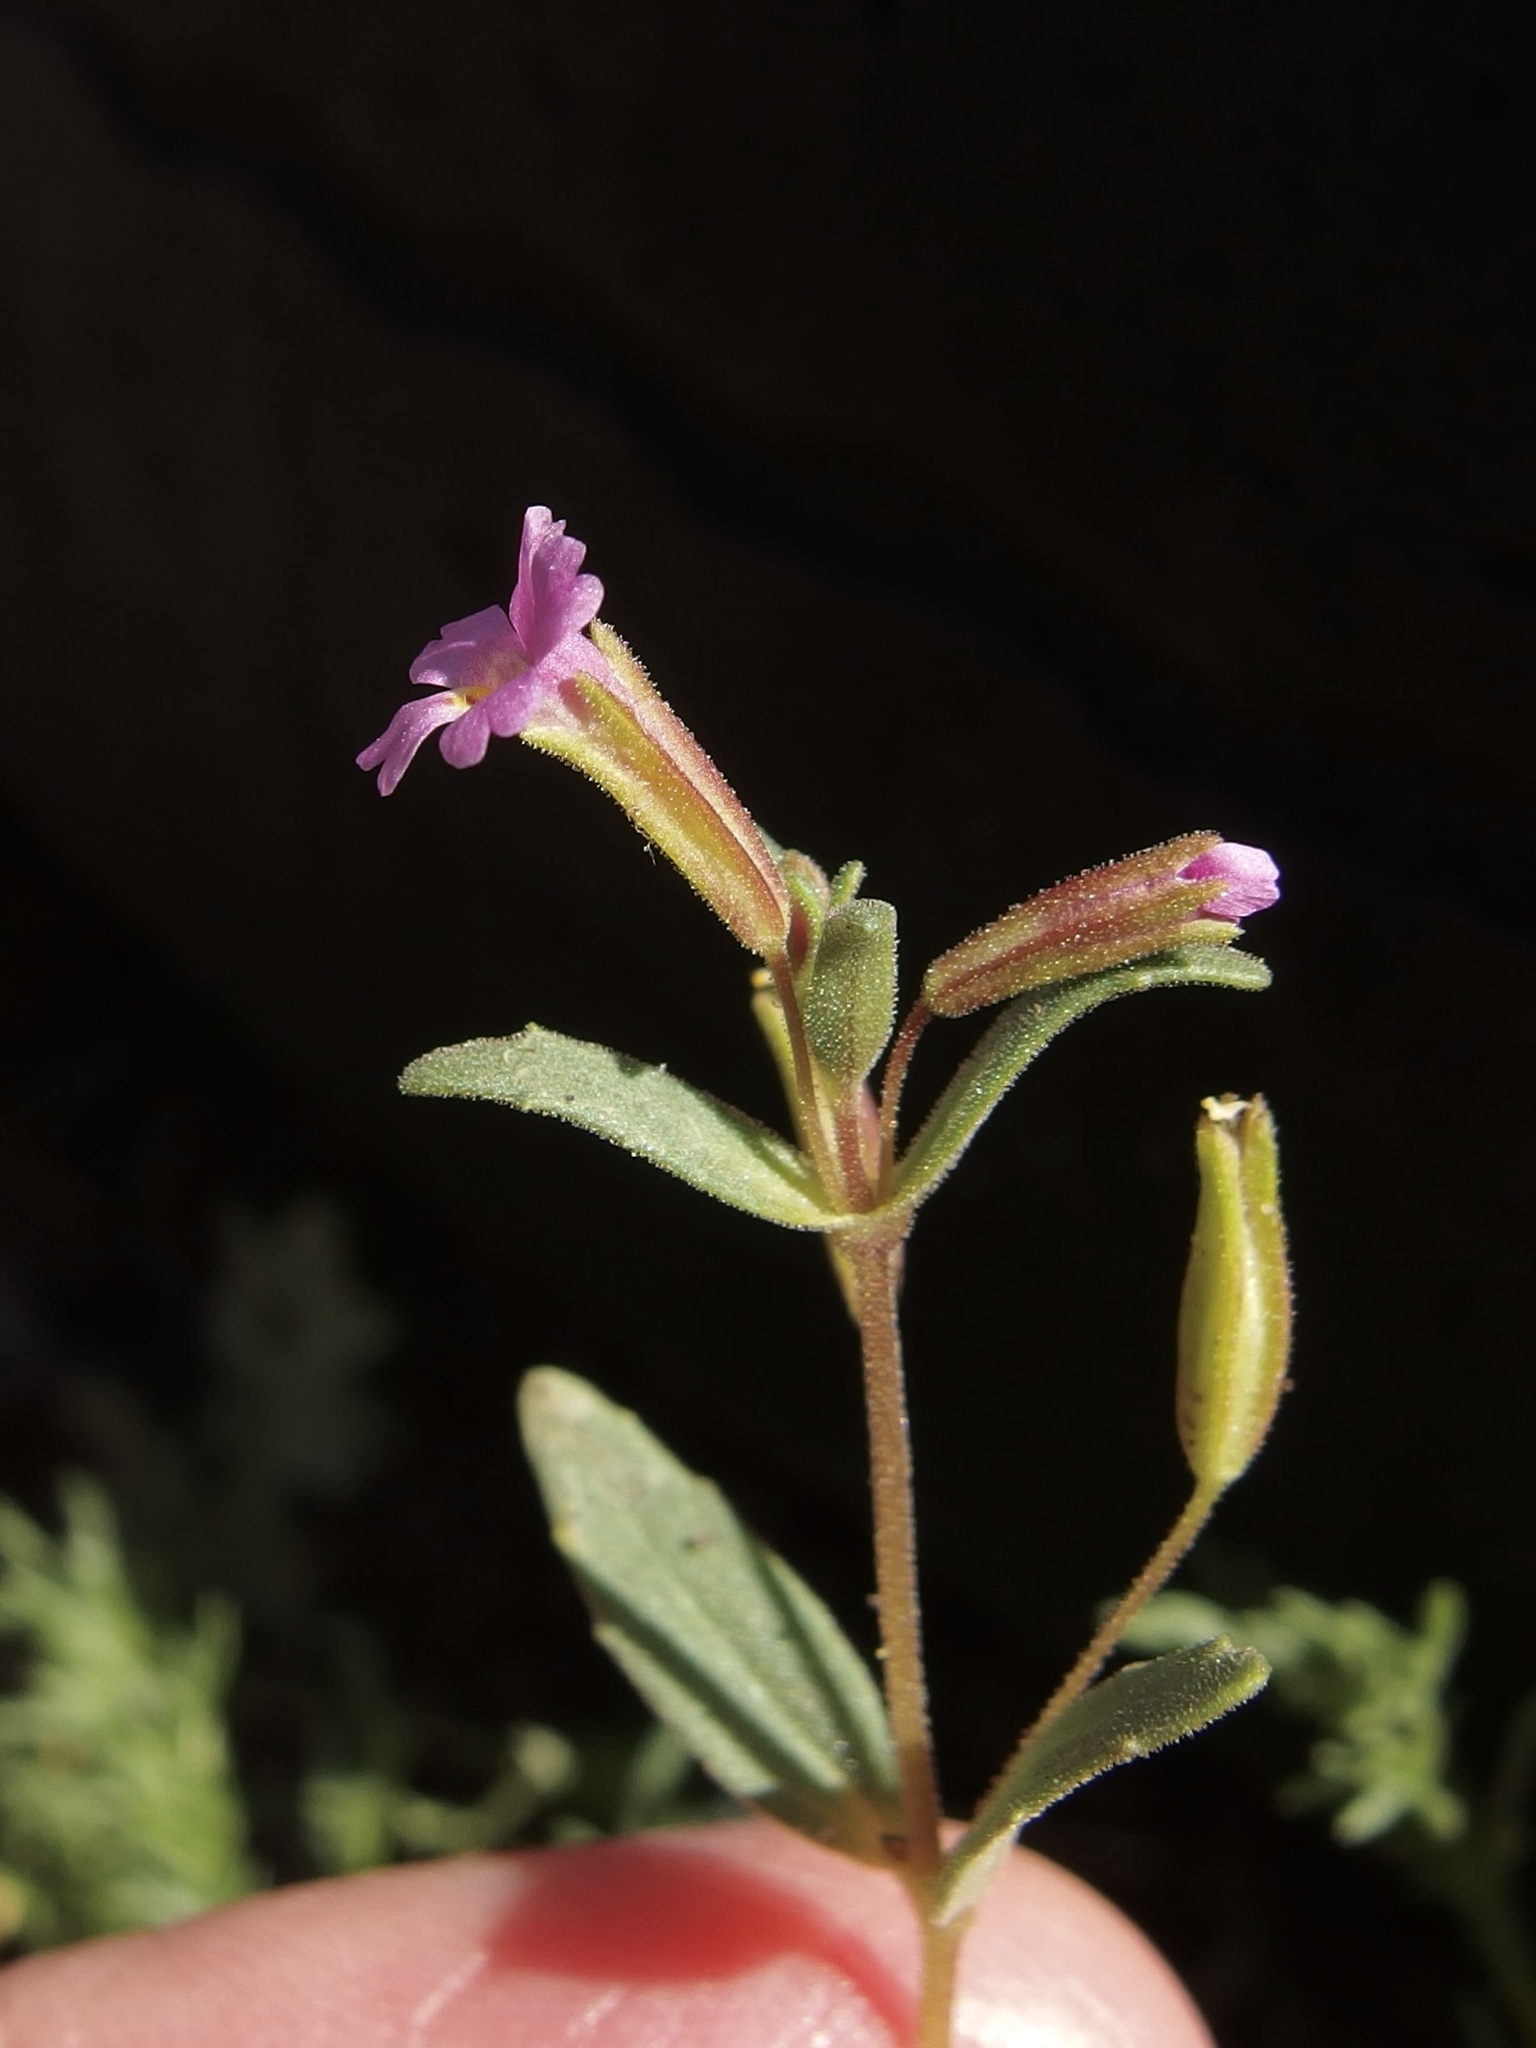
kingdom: Plantae
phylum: Tracheophyta
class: Magnoliopsida
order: Lamiales
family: Phrymaceae
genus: Erythranthe
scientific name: Erythranthe rubella
